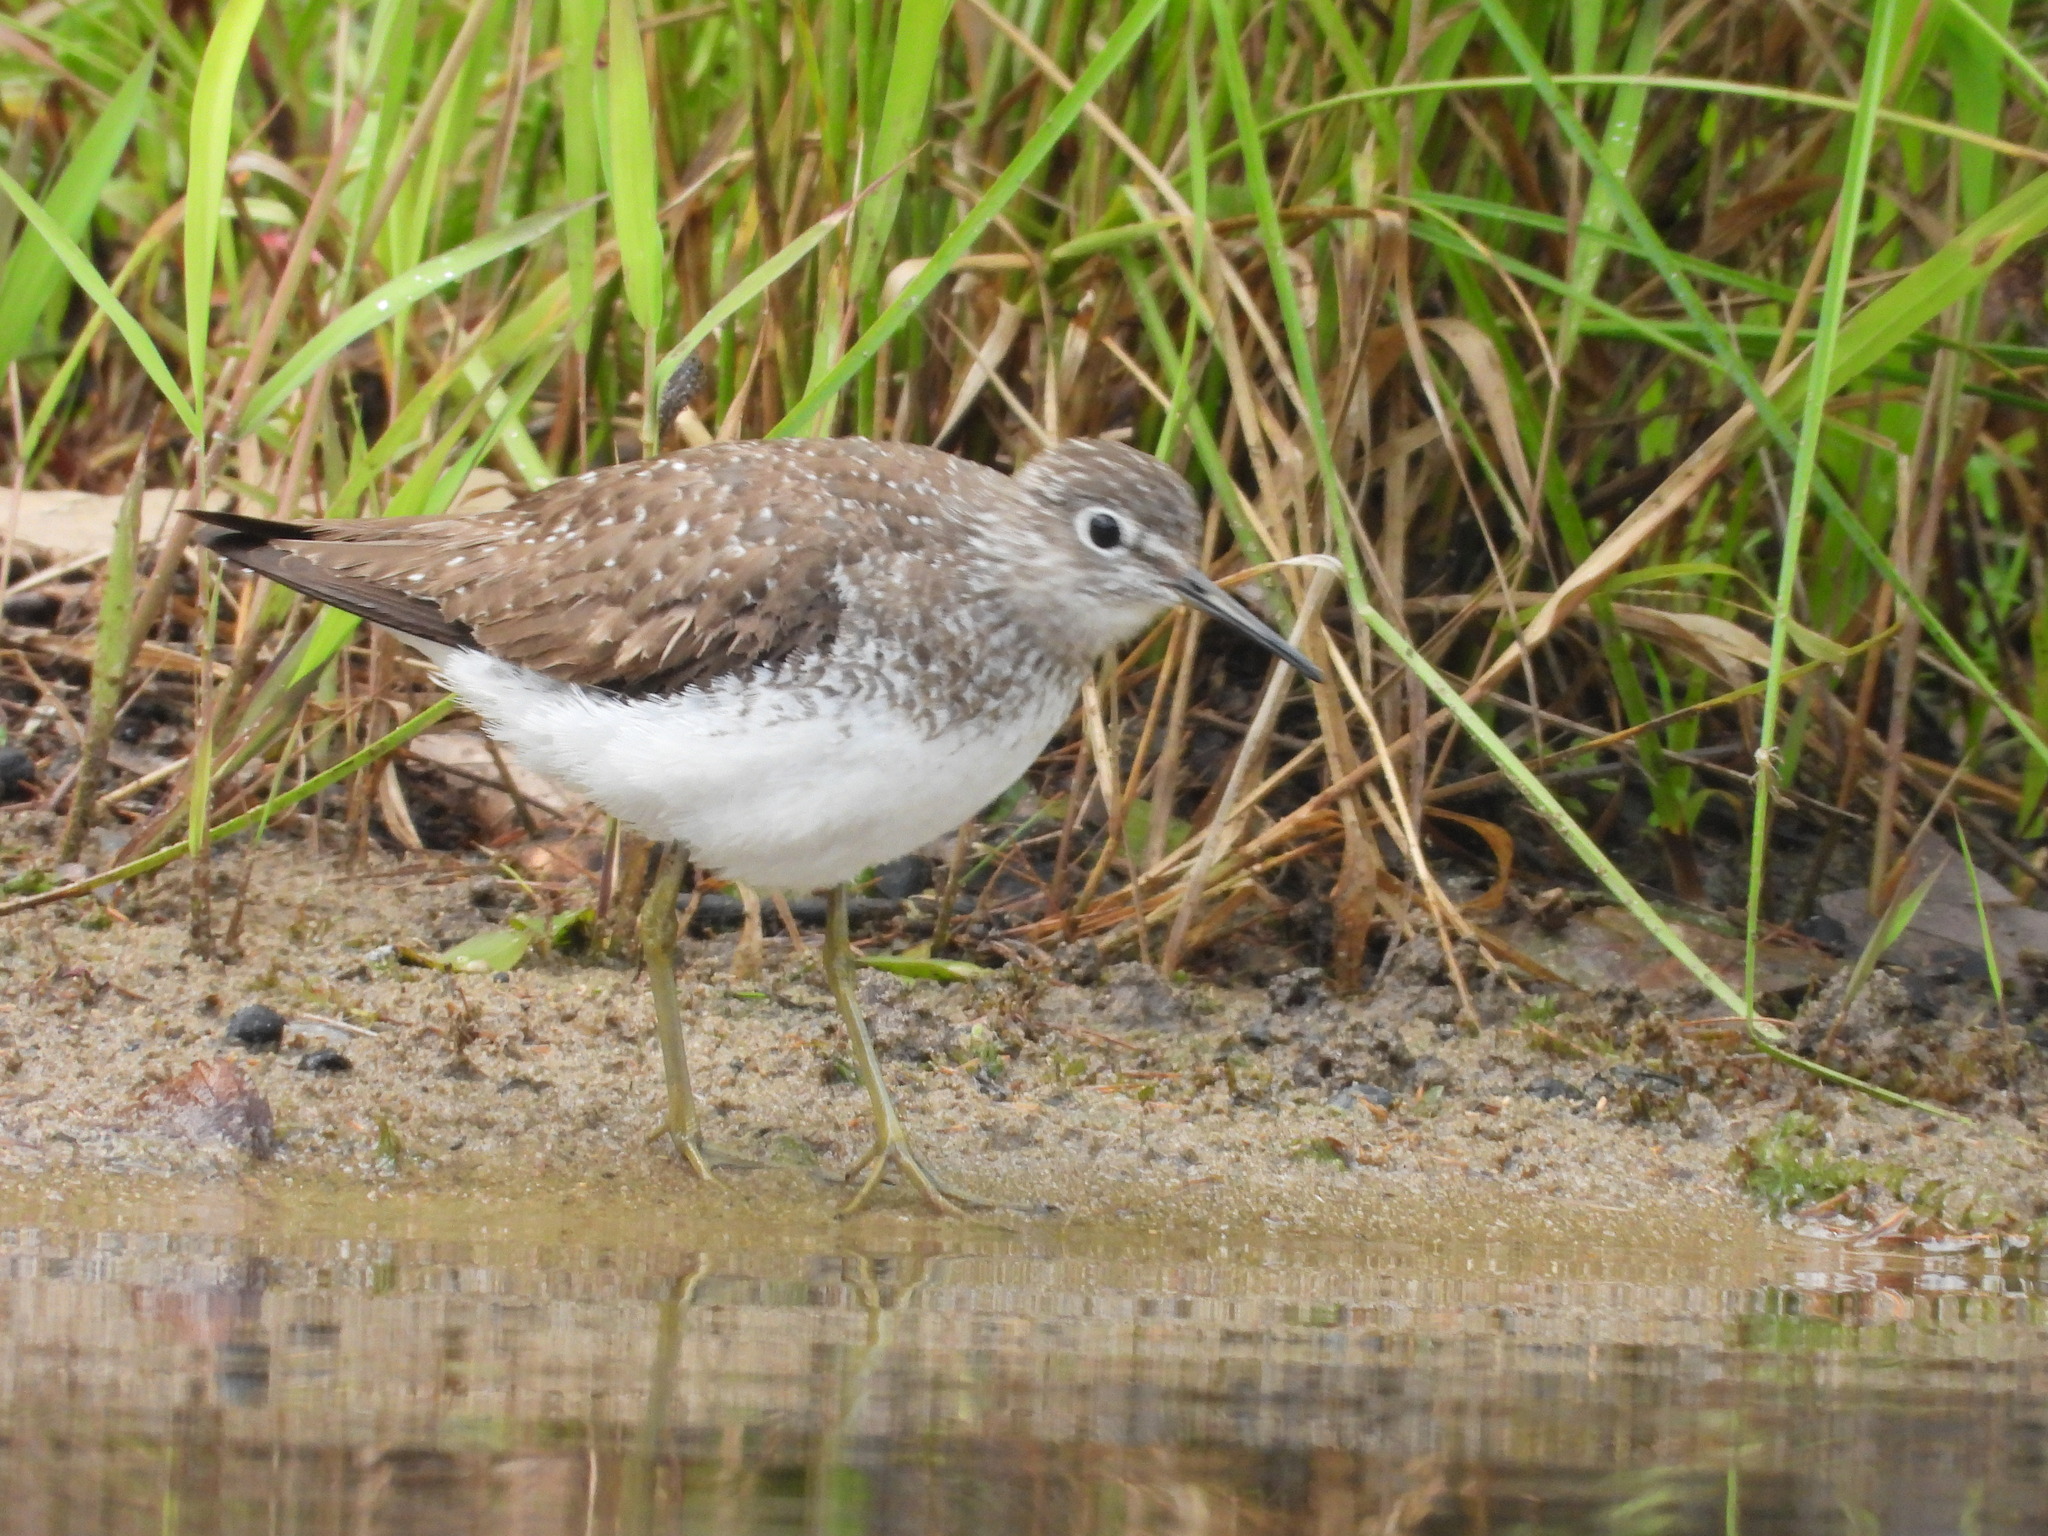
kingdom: Animalia
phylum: Chordata
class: Aves
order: Charadriiformes
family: Scolopacidae
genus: Tringa
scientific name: Tringa solitaria
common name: Solitary sandpiper
